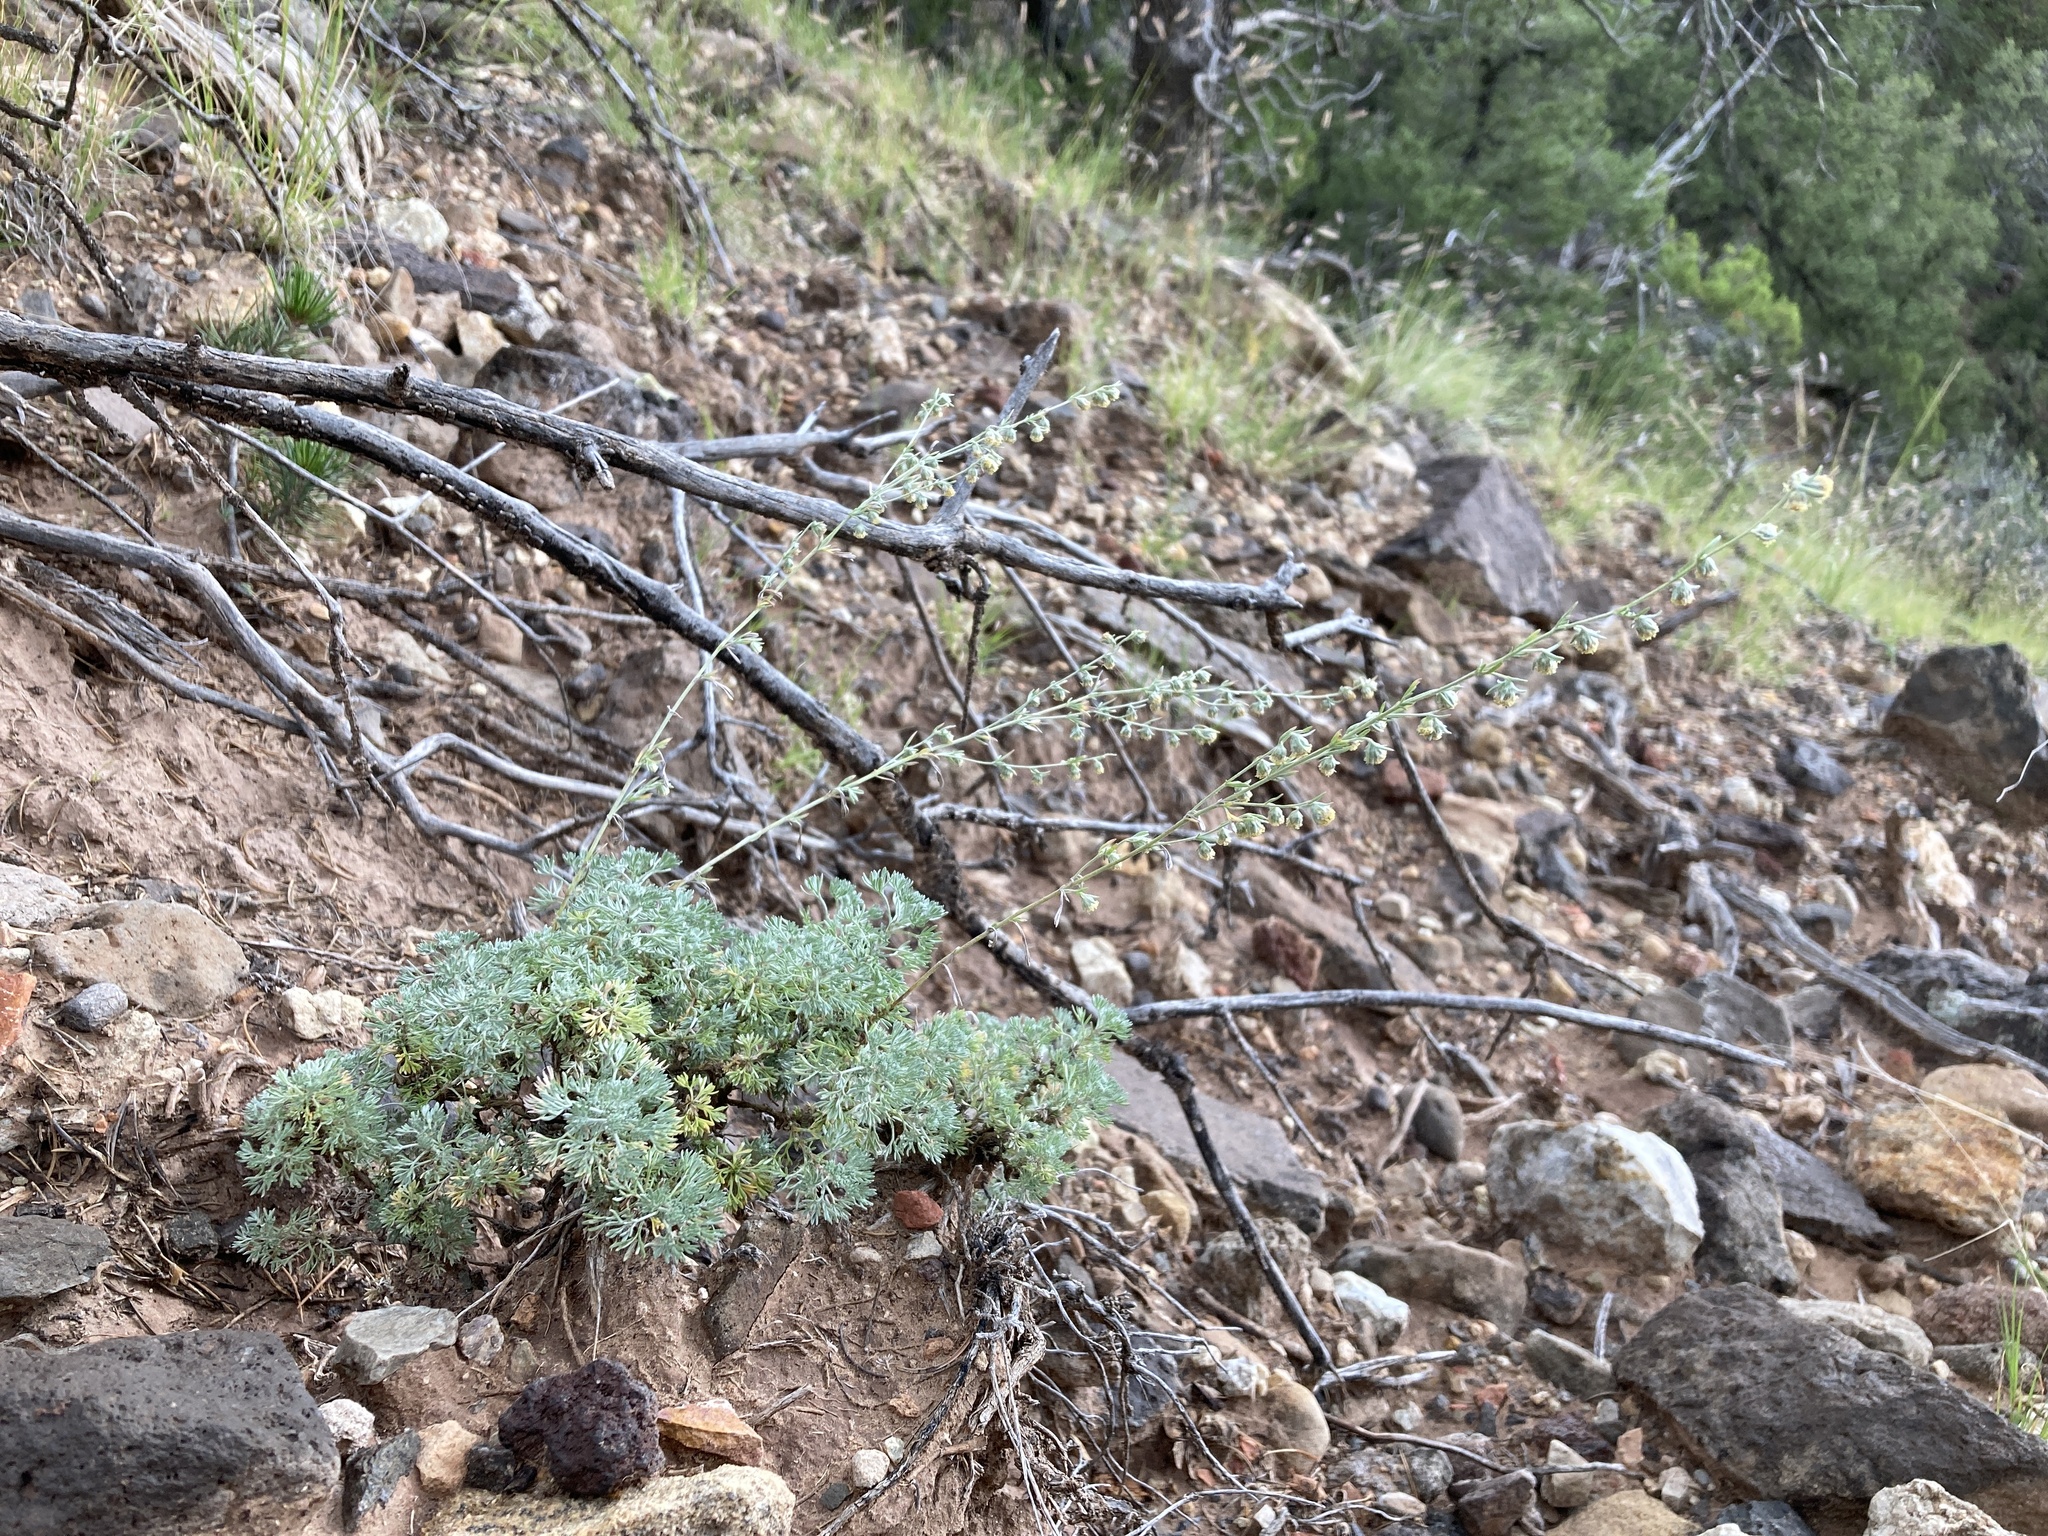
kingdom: Plantae
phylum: Tracheophyta
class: Magnoliopsida
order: Asterales
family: Asteraceae
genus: Artemisia
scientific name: Artemisia frigida
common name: Prairie sagewort
